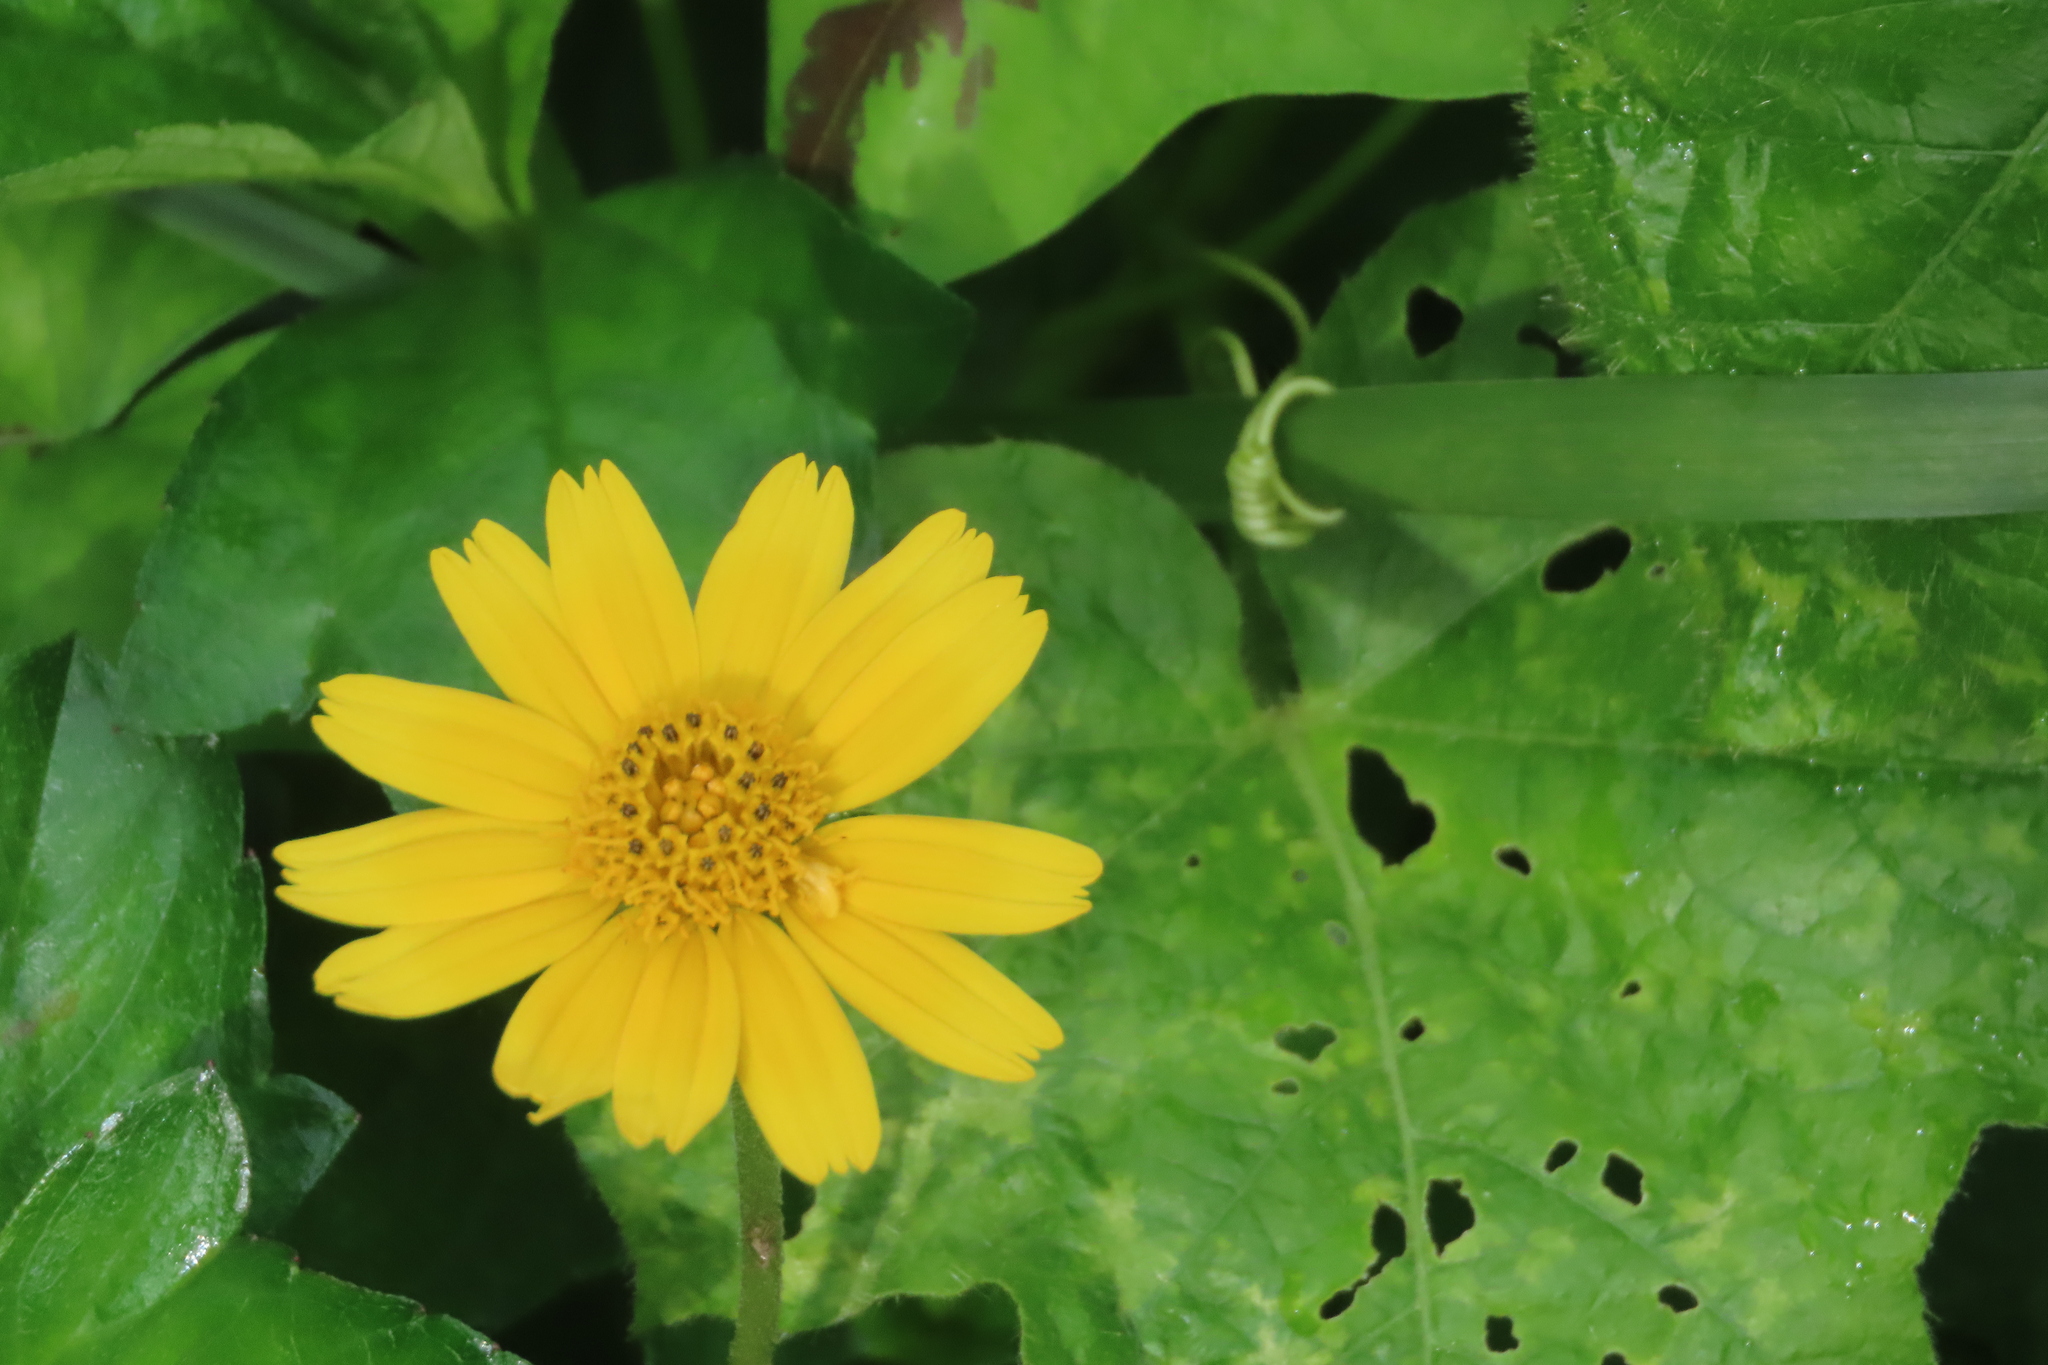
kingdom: Plantae
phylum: Tracheophyta
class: Magnoliopsida
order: Asterales
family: Asteraceae
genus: Sphagneticola
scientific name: Sphagneticola trilobata
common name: Bay biscayne creeping-oxeye
